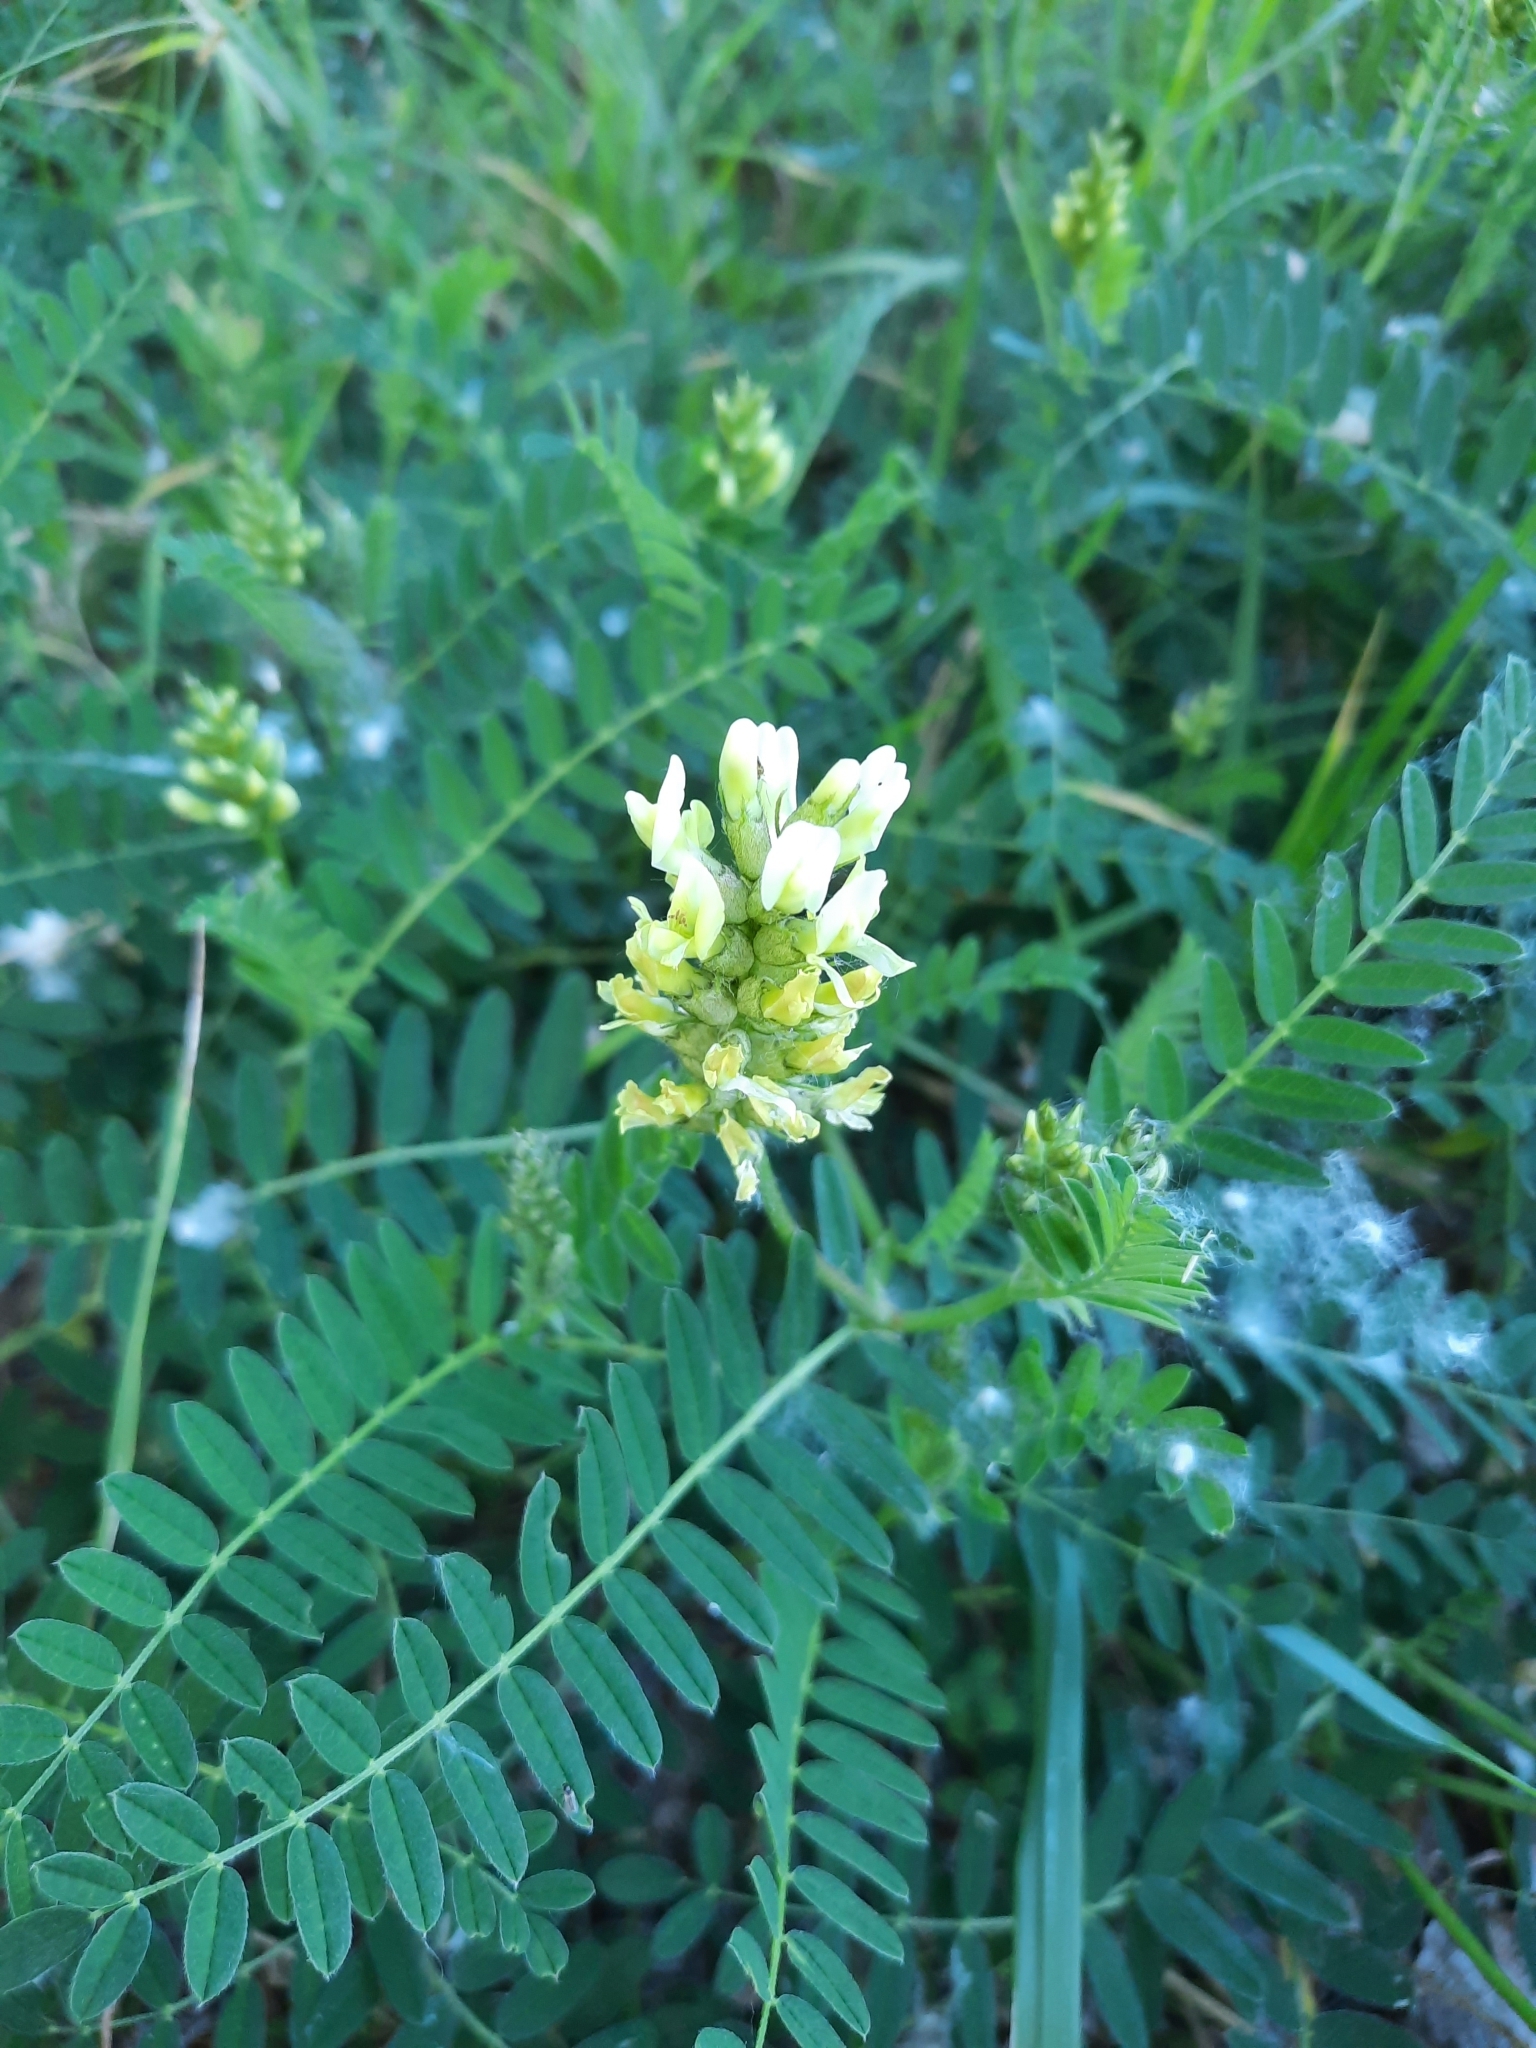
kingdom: Plantae
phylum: Tracheophyta
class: Magnoliopsida
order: Fabales
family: Fabaceae
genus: Astragalus
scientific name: Astragalus cicer
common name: Chick-pea milk-vetch
